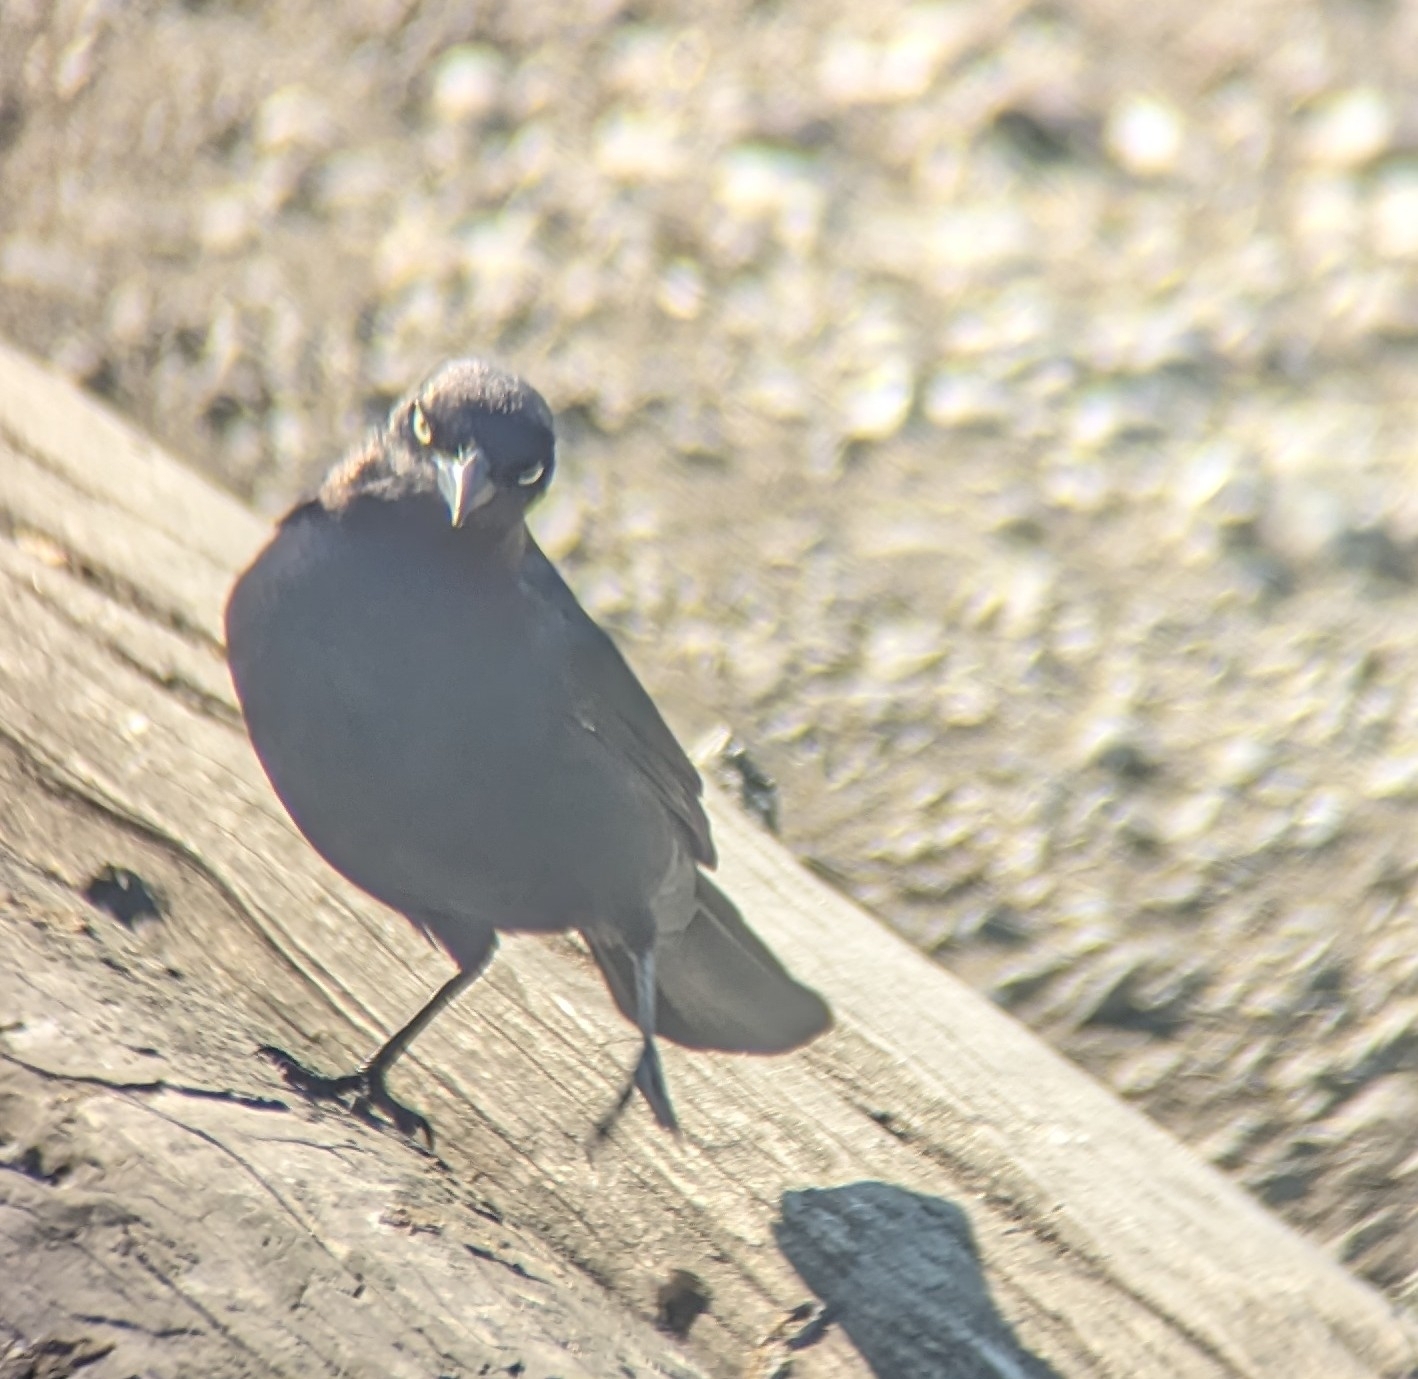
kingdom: Animalia
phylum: Chordata
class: Aves
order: Passeriformes
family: Icteridae
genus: Euphagus
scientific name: Euphagus cyanocephalus
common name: Brewer's blackbird
